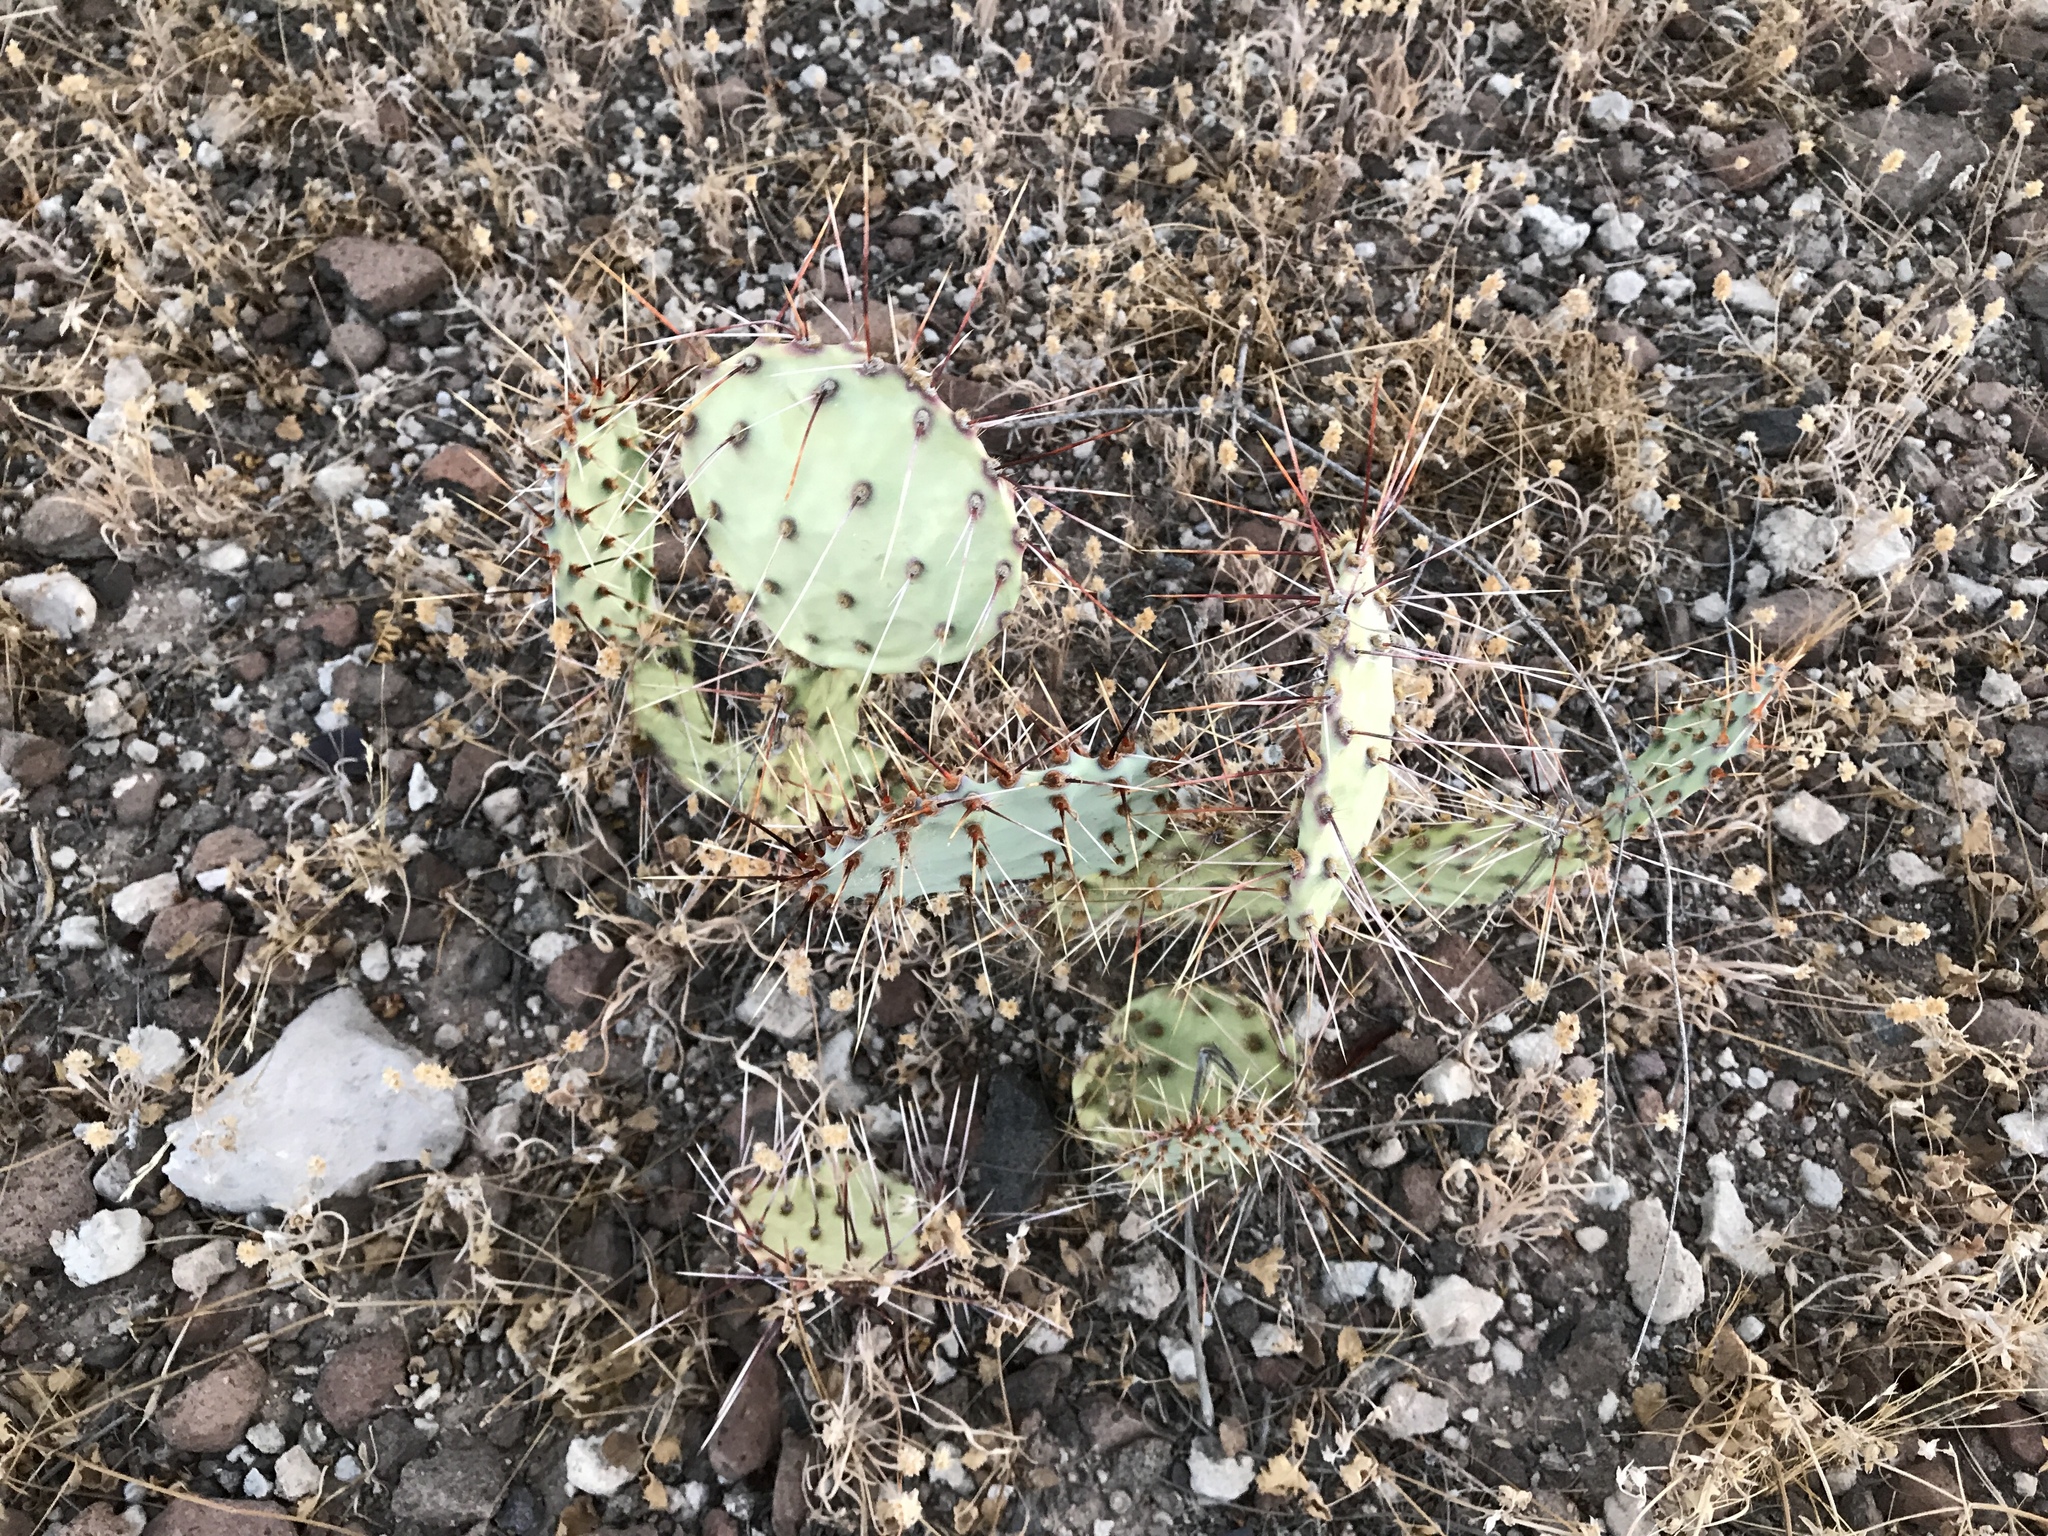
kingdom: Plantae
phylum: Tracheophyta
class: Magnoliopsida
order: Caryophyllales
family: Cactaceae
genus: Opuntia
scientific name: Opuntia phaeacantha
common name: New mexico prickly-pear
